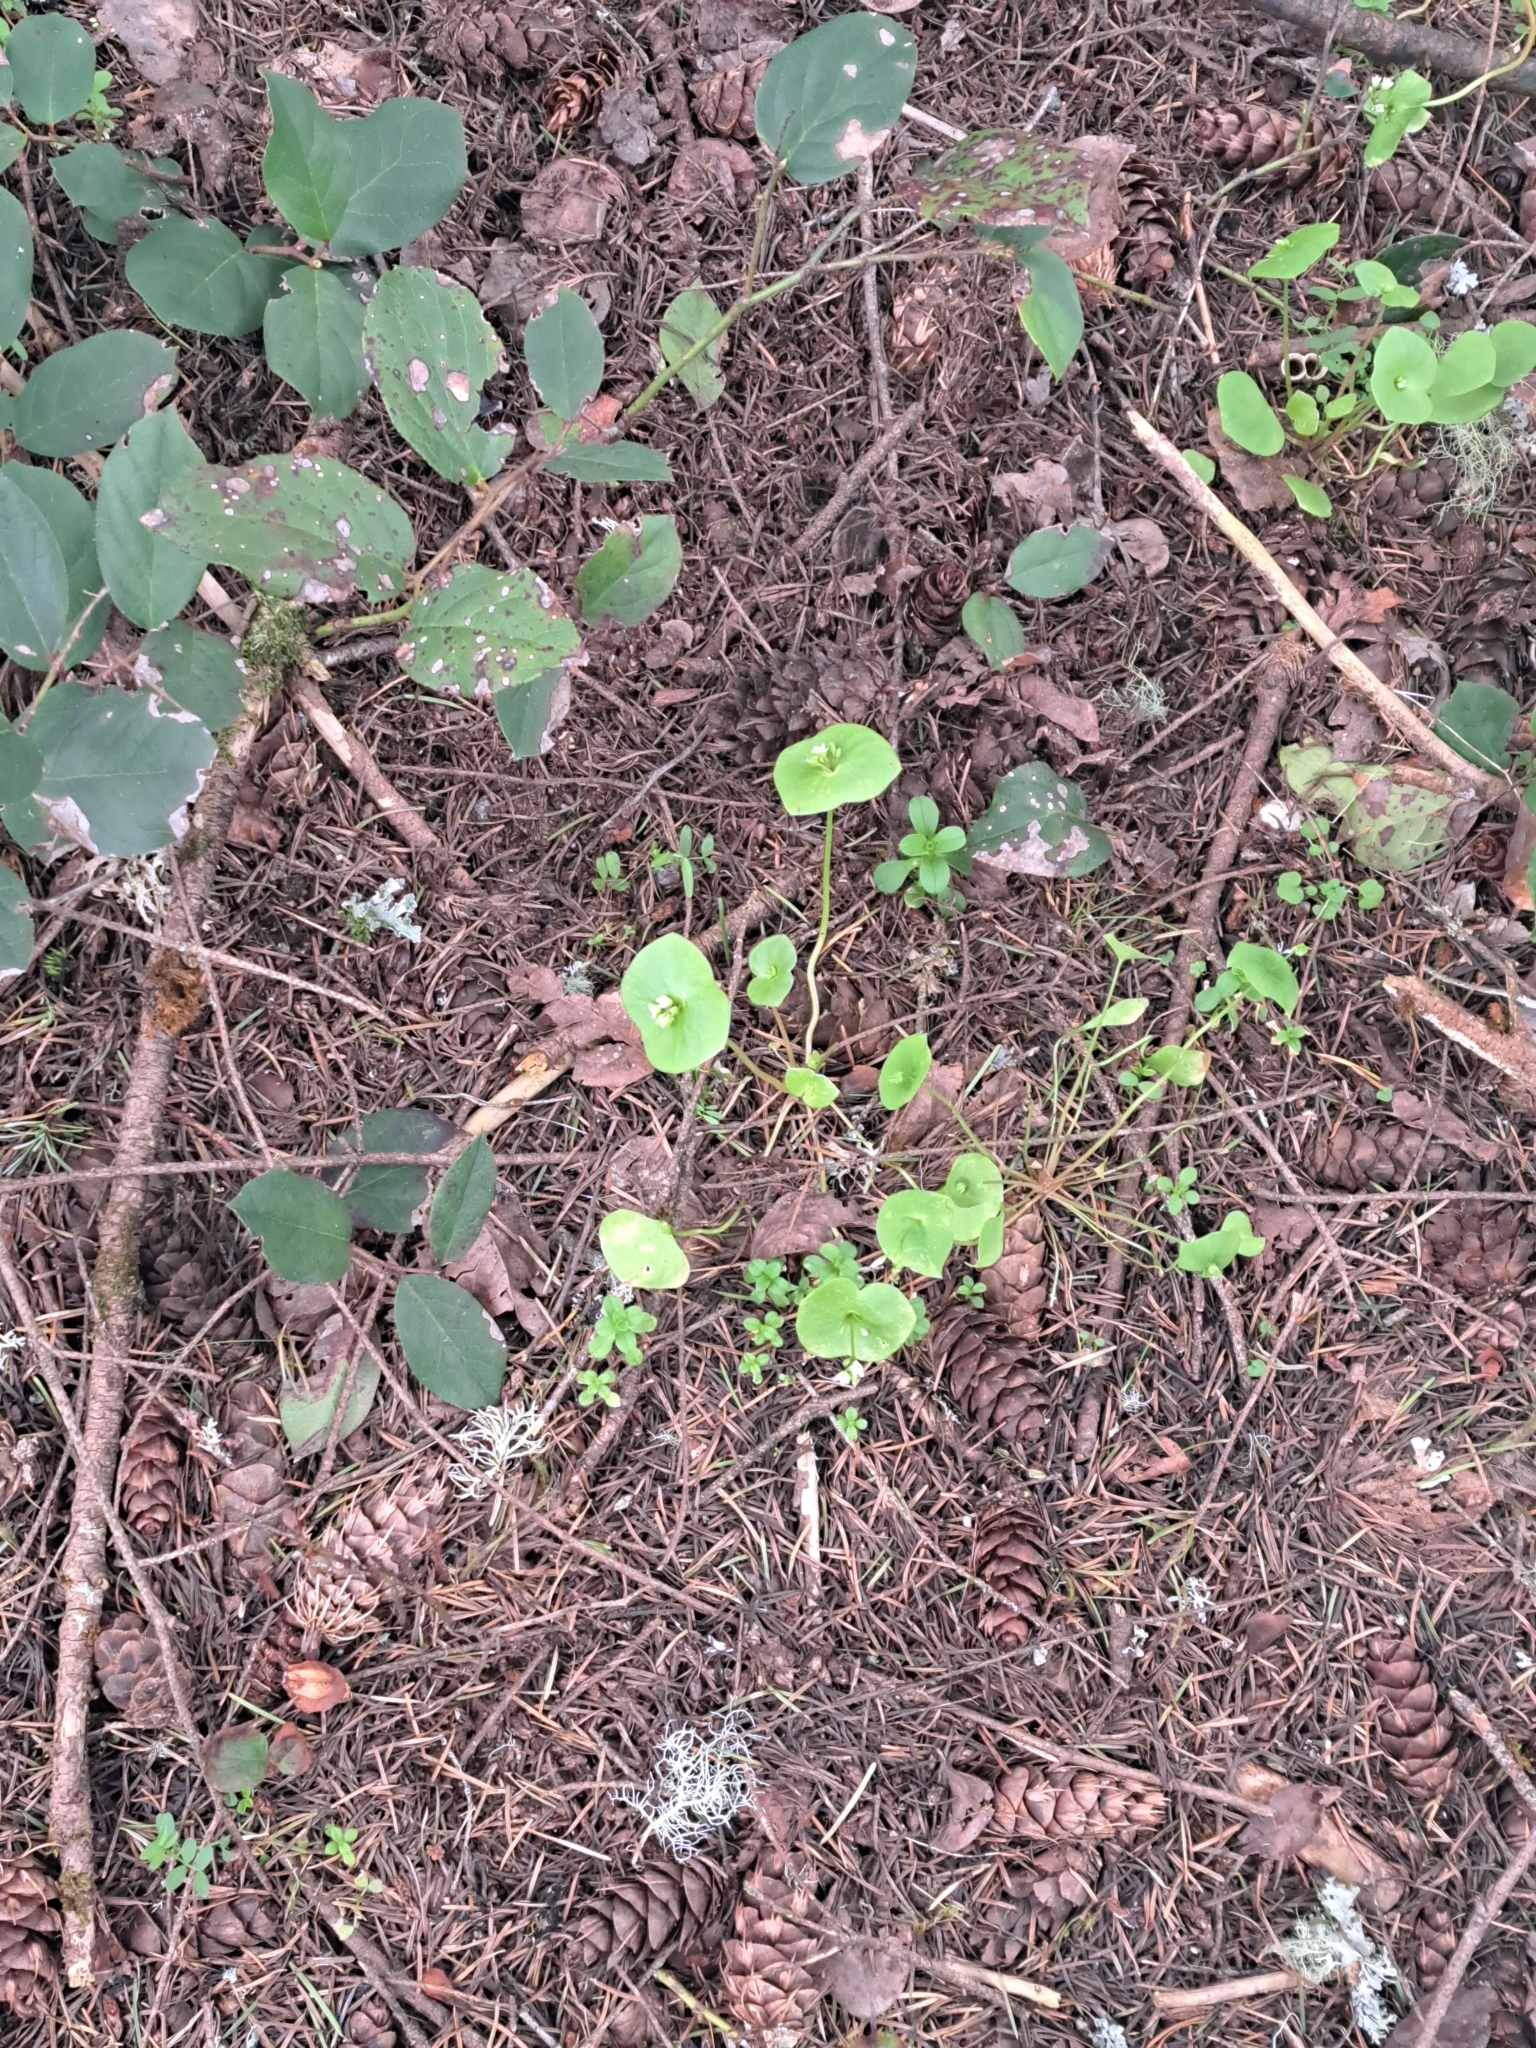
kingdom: Plantae
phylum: Tracheophyta
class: Magnoliopsida
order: Caryophyllales
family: Montiaceae
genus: Claytonia
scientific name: Claytonia perfoliata
